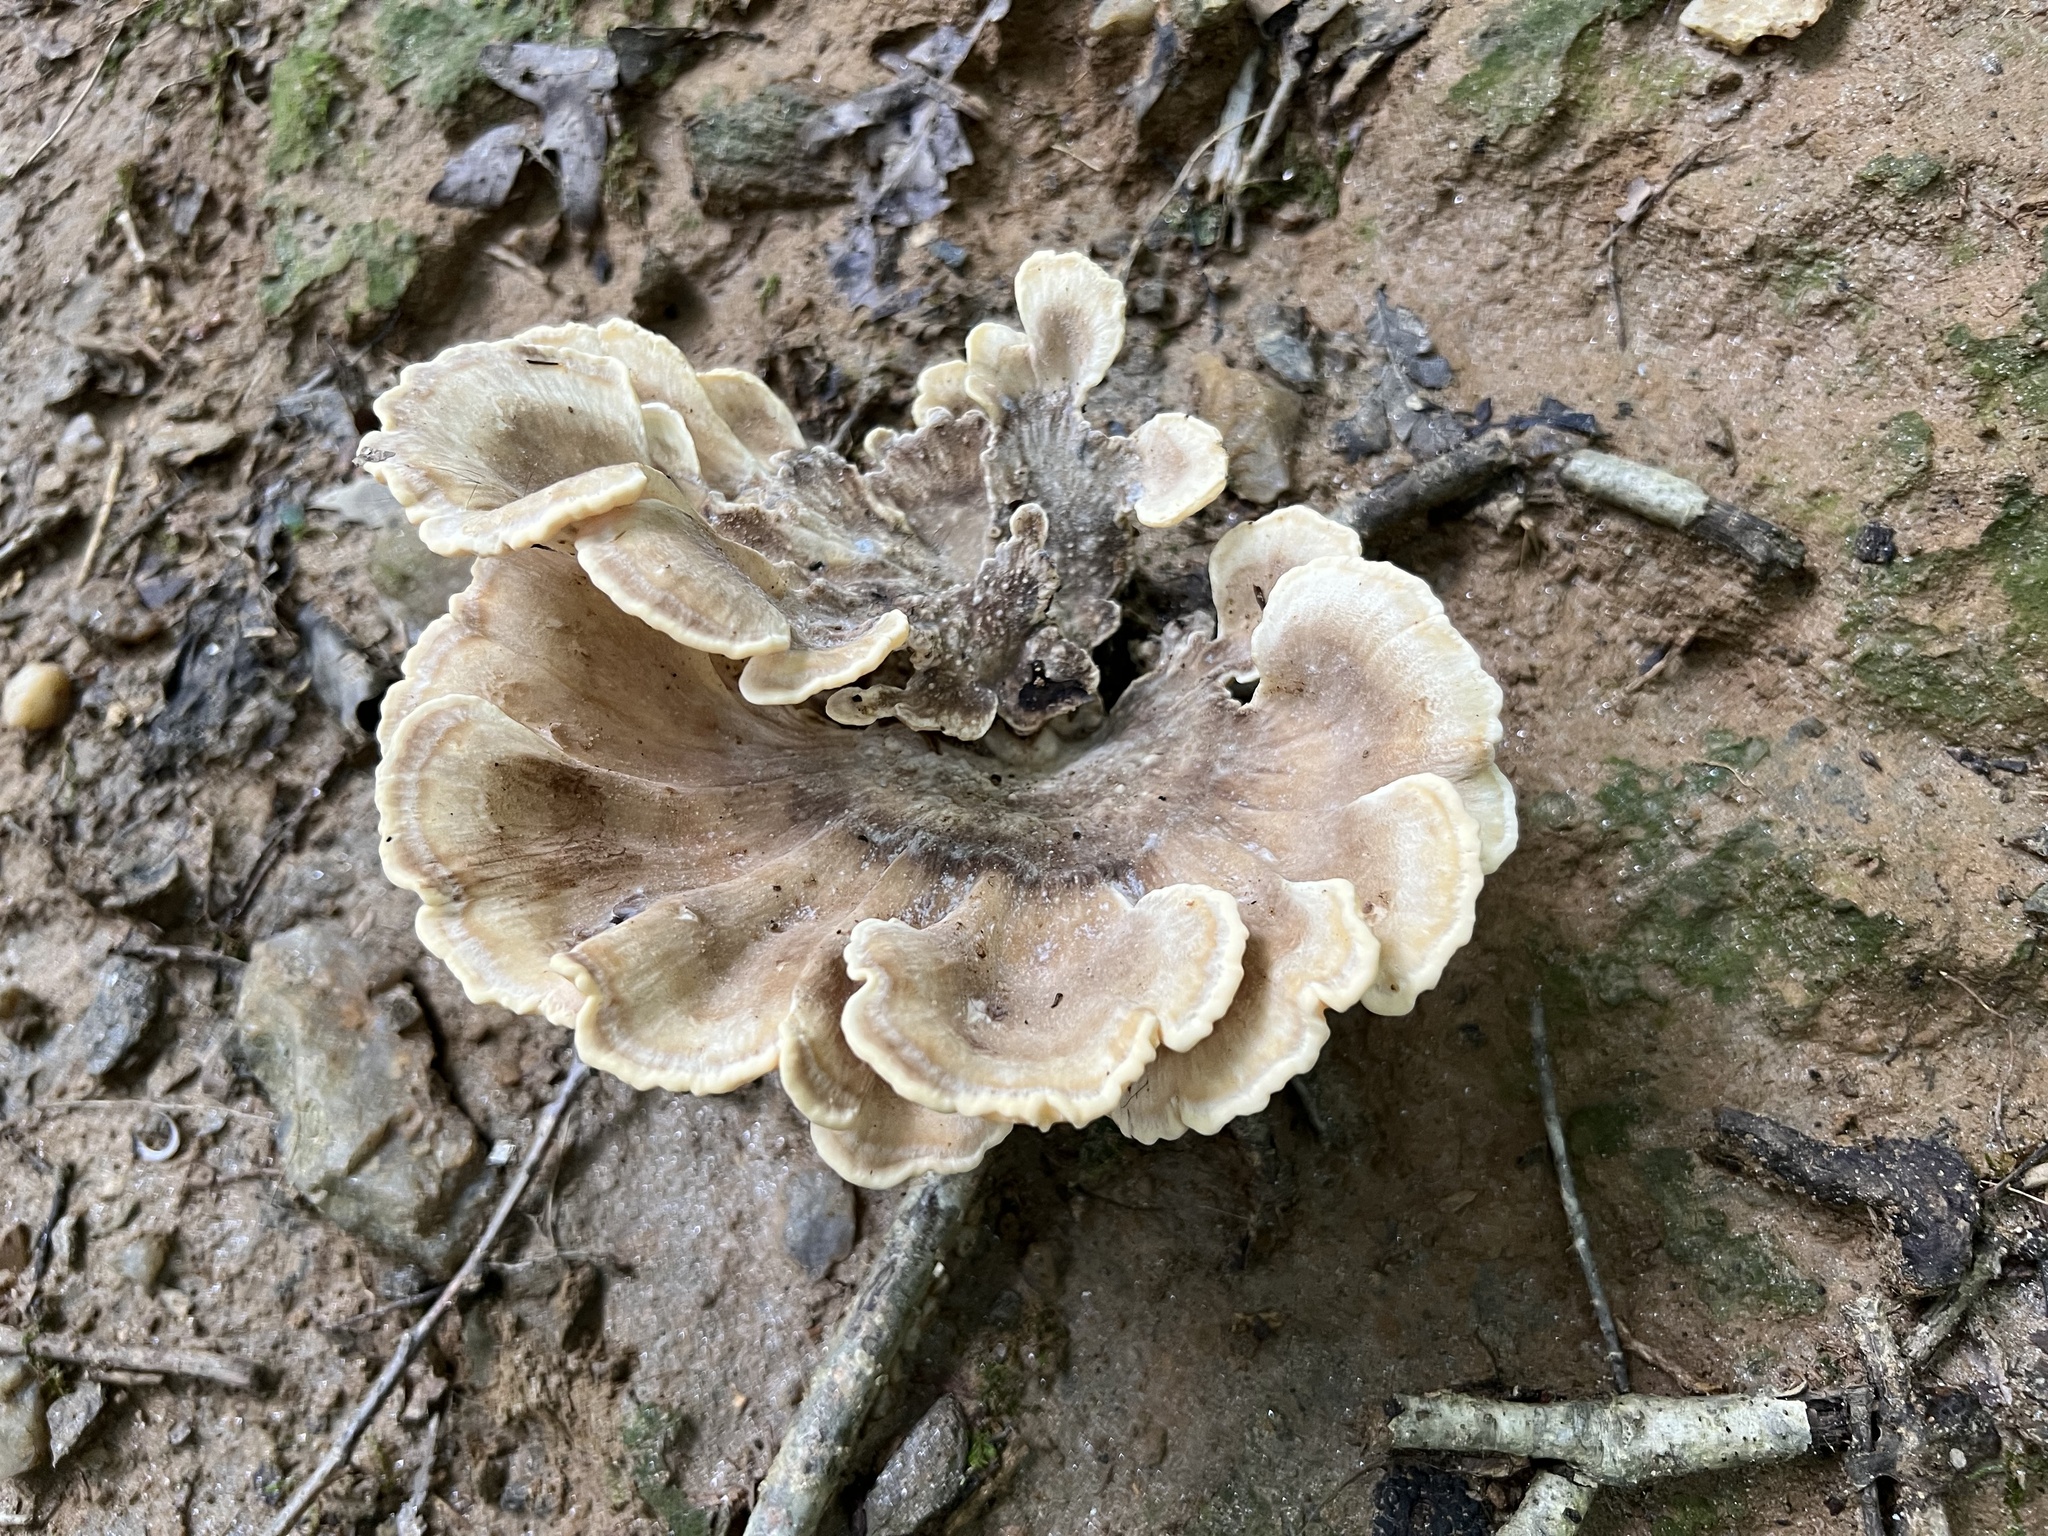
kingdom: Fungi
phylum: Basidiomycota
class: Agaricomycetes
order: Polyporales
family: Meripilaceae
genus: Meripilus
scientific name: Meripilus sumstinei
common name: Black-staining polypore
